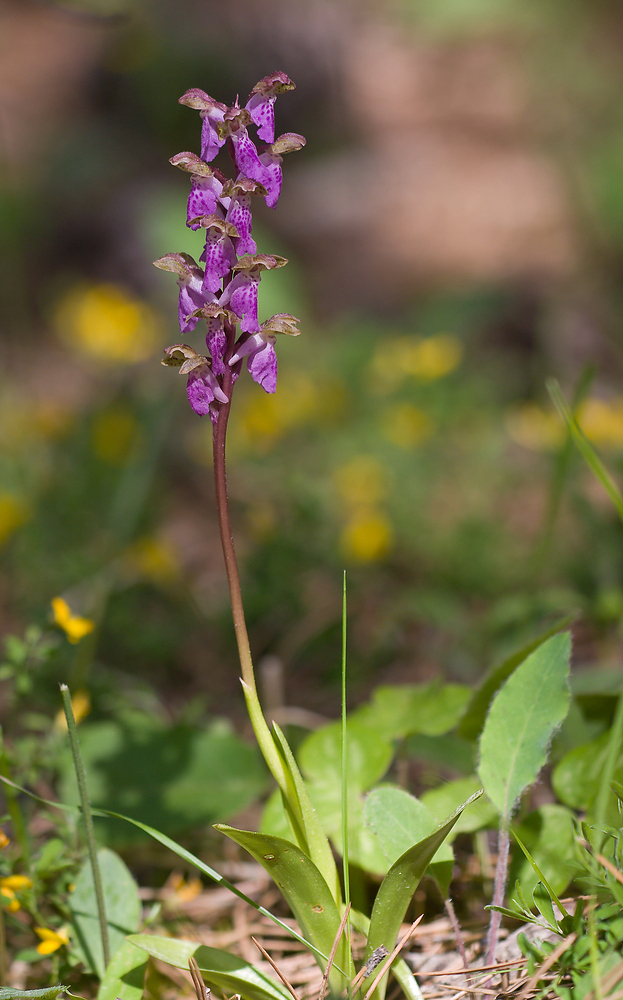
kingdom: Plantae
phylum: Tracheophyta
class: Liliopsida
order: Asparagales
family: Orchidaceae
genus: Orchis
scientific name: Orchis spitzelii
